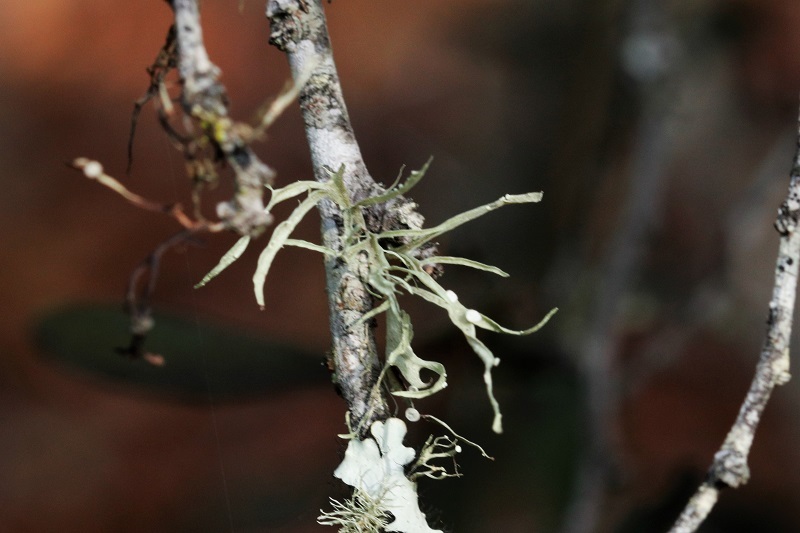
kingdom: Fungi
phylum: Ascomycota
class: Lecanoromycetes
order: Lecanorales
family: Ramalinaceae
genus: Ramalina
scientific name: Ramalina celastri
